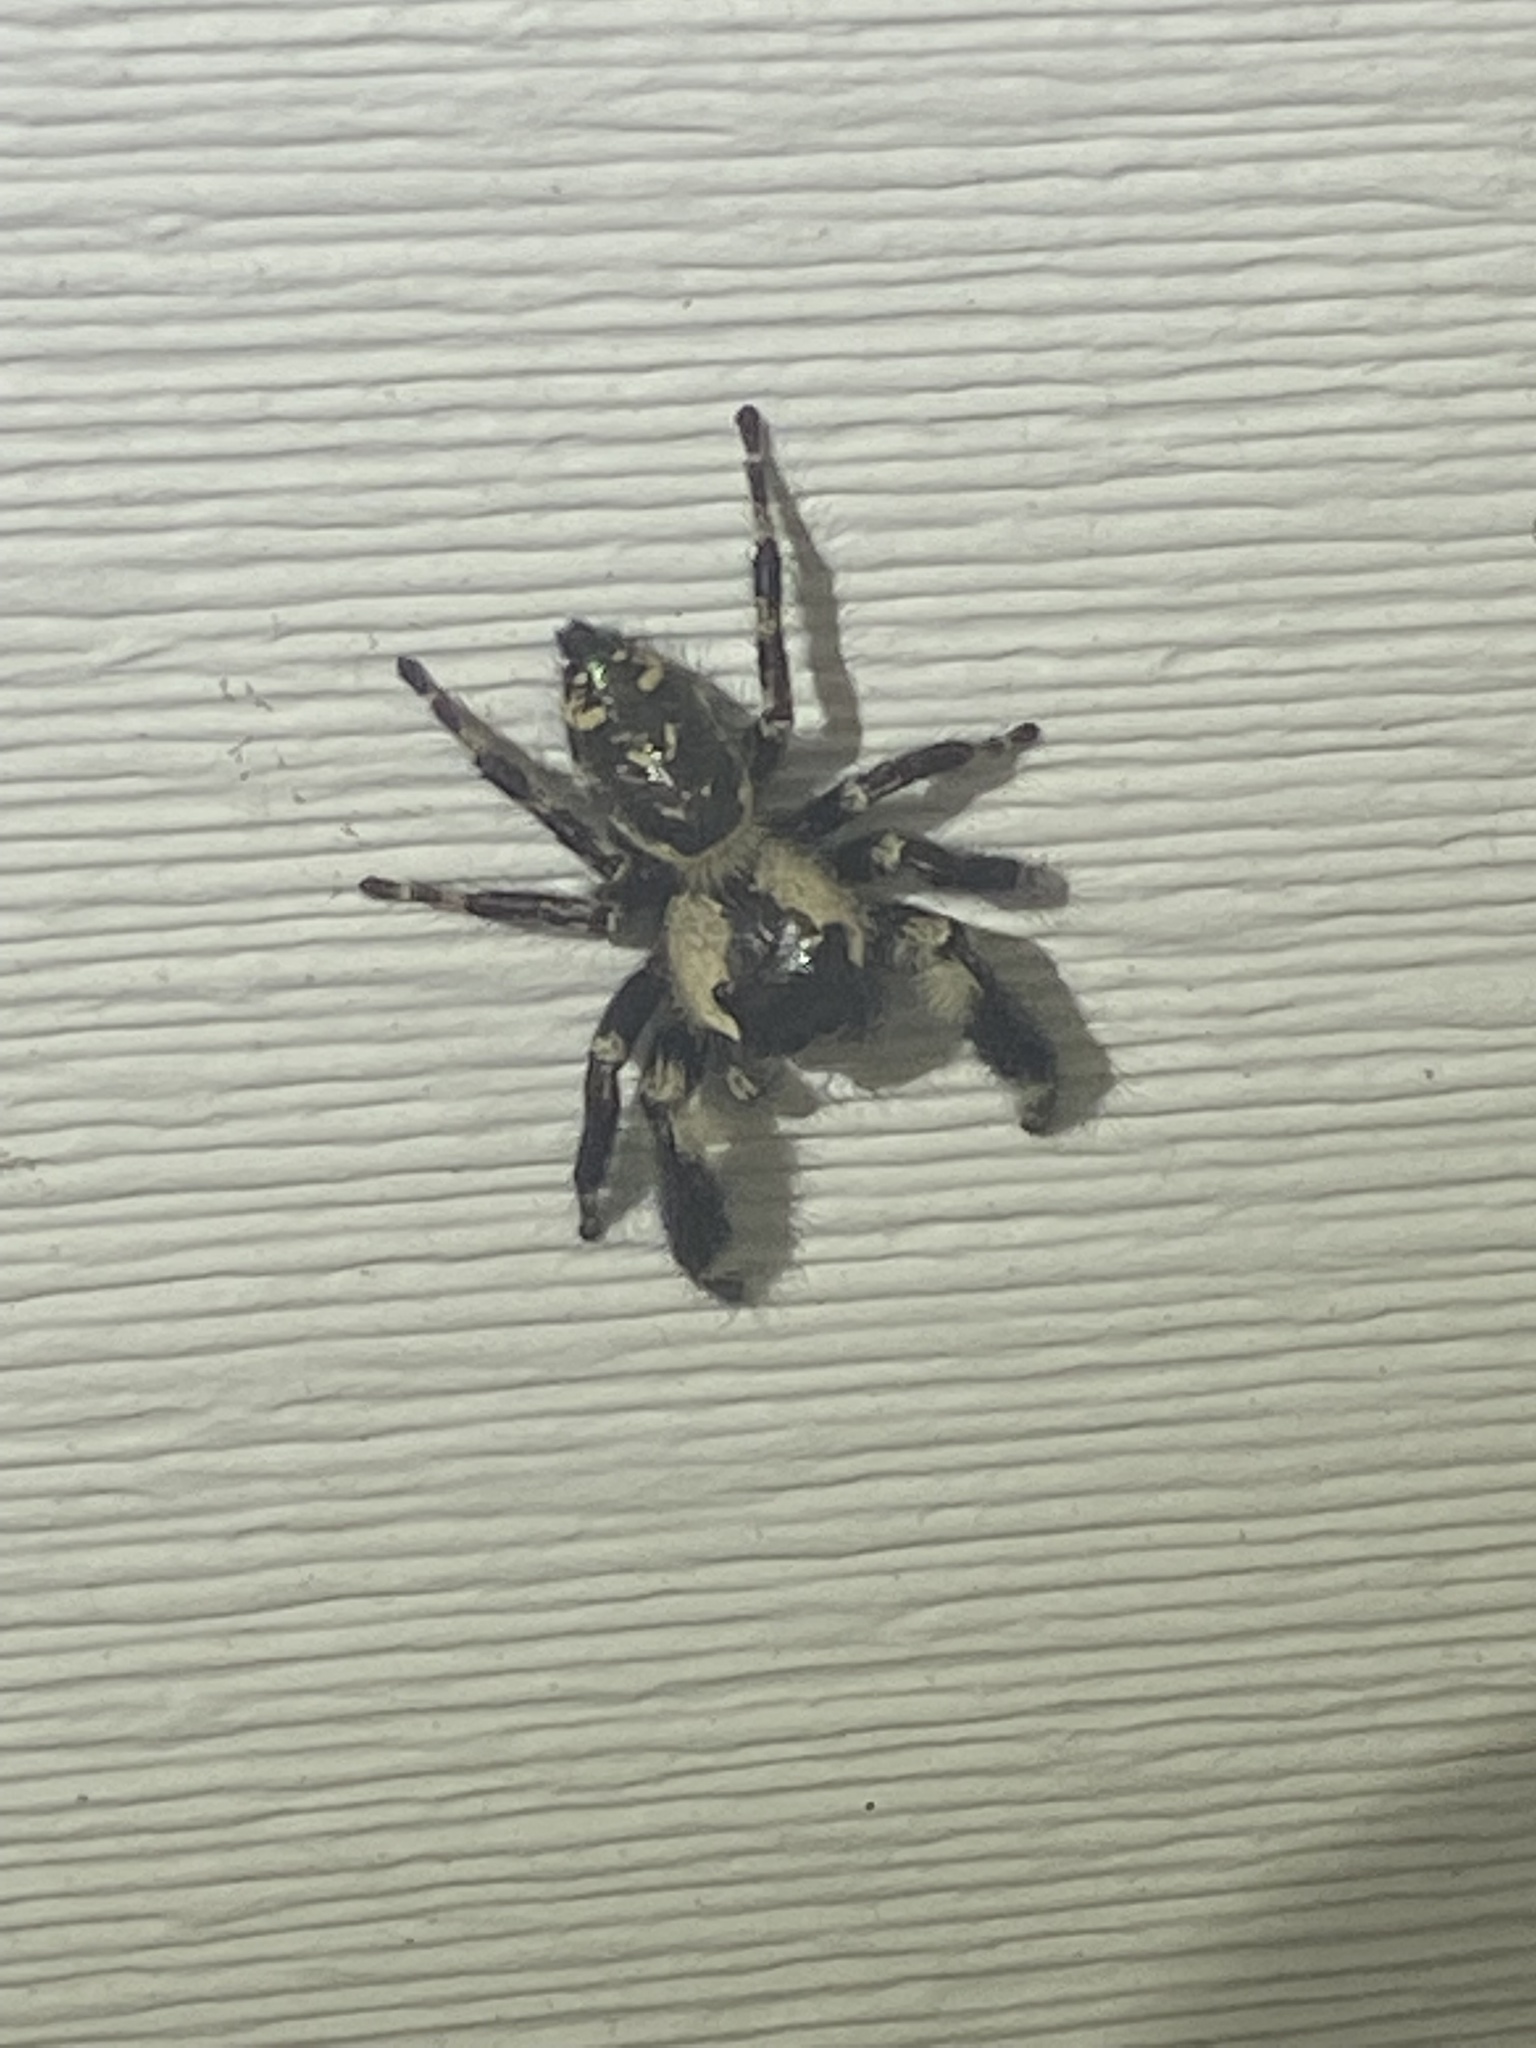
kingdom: Animalia
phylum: Arthropoda
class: Arachnida
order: Araneae
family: Salticidae
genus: Phidippus
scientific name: Phidippus otiosus
